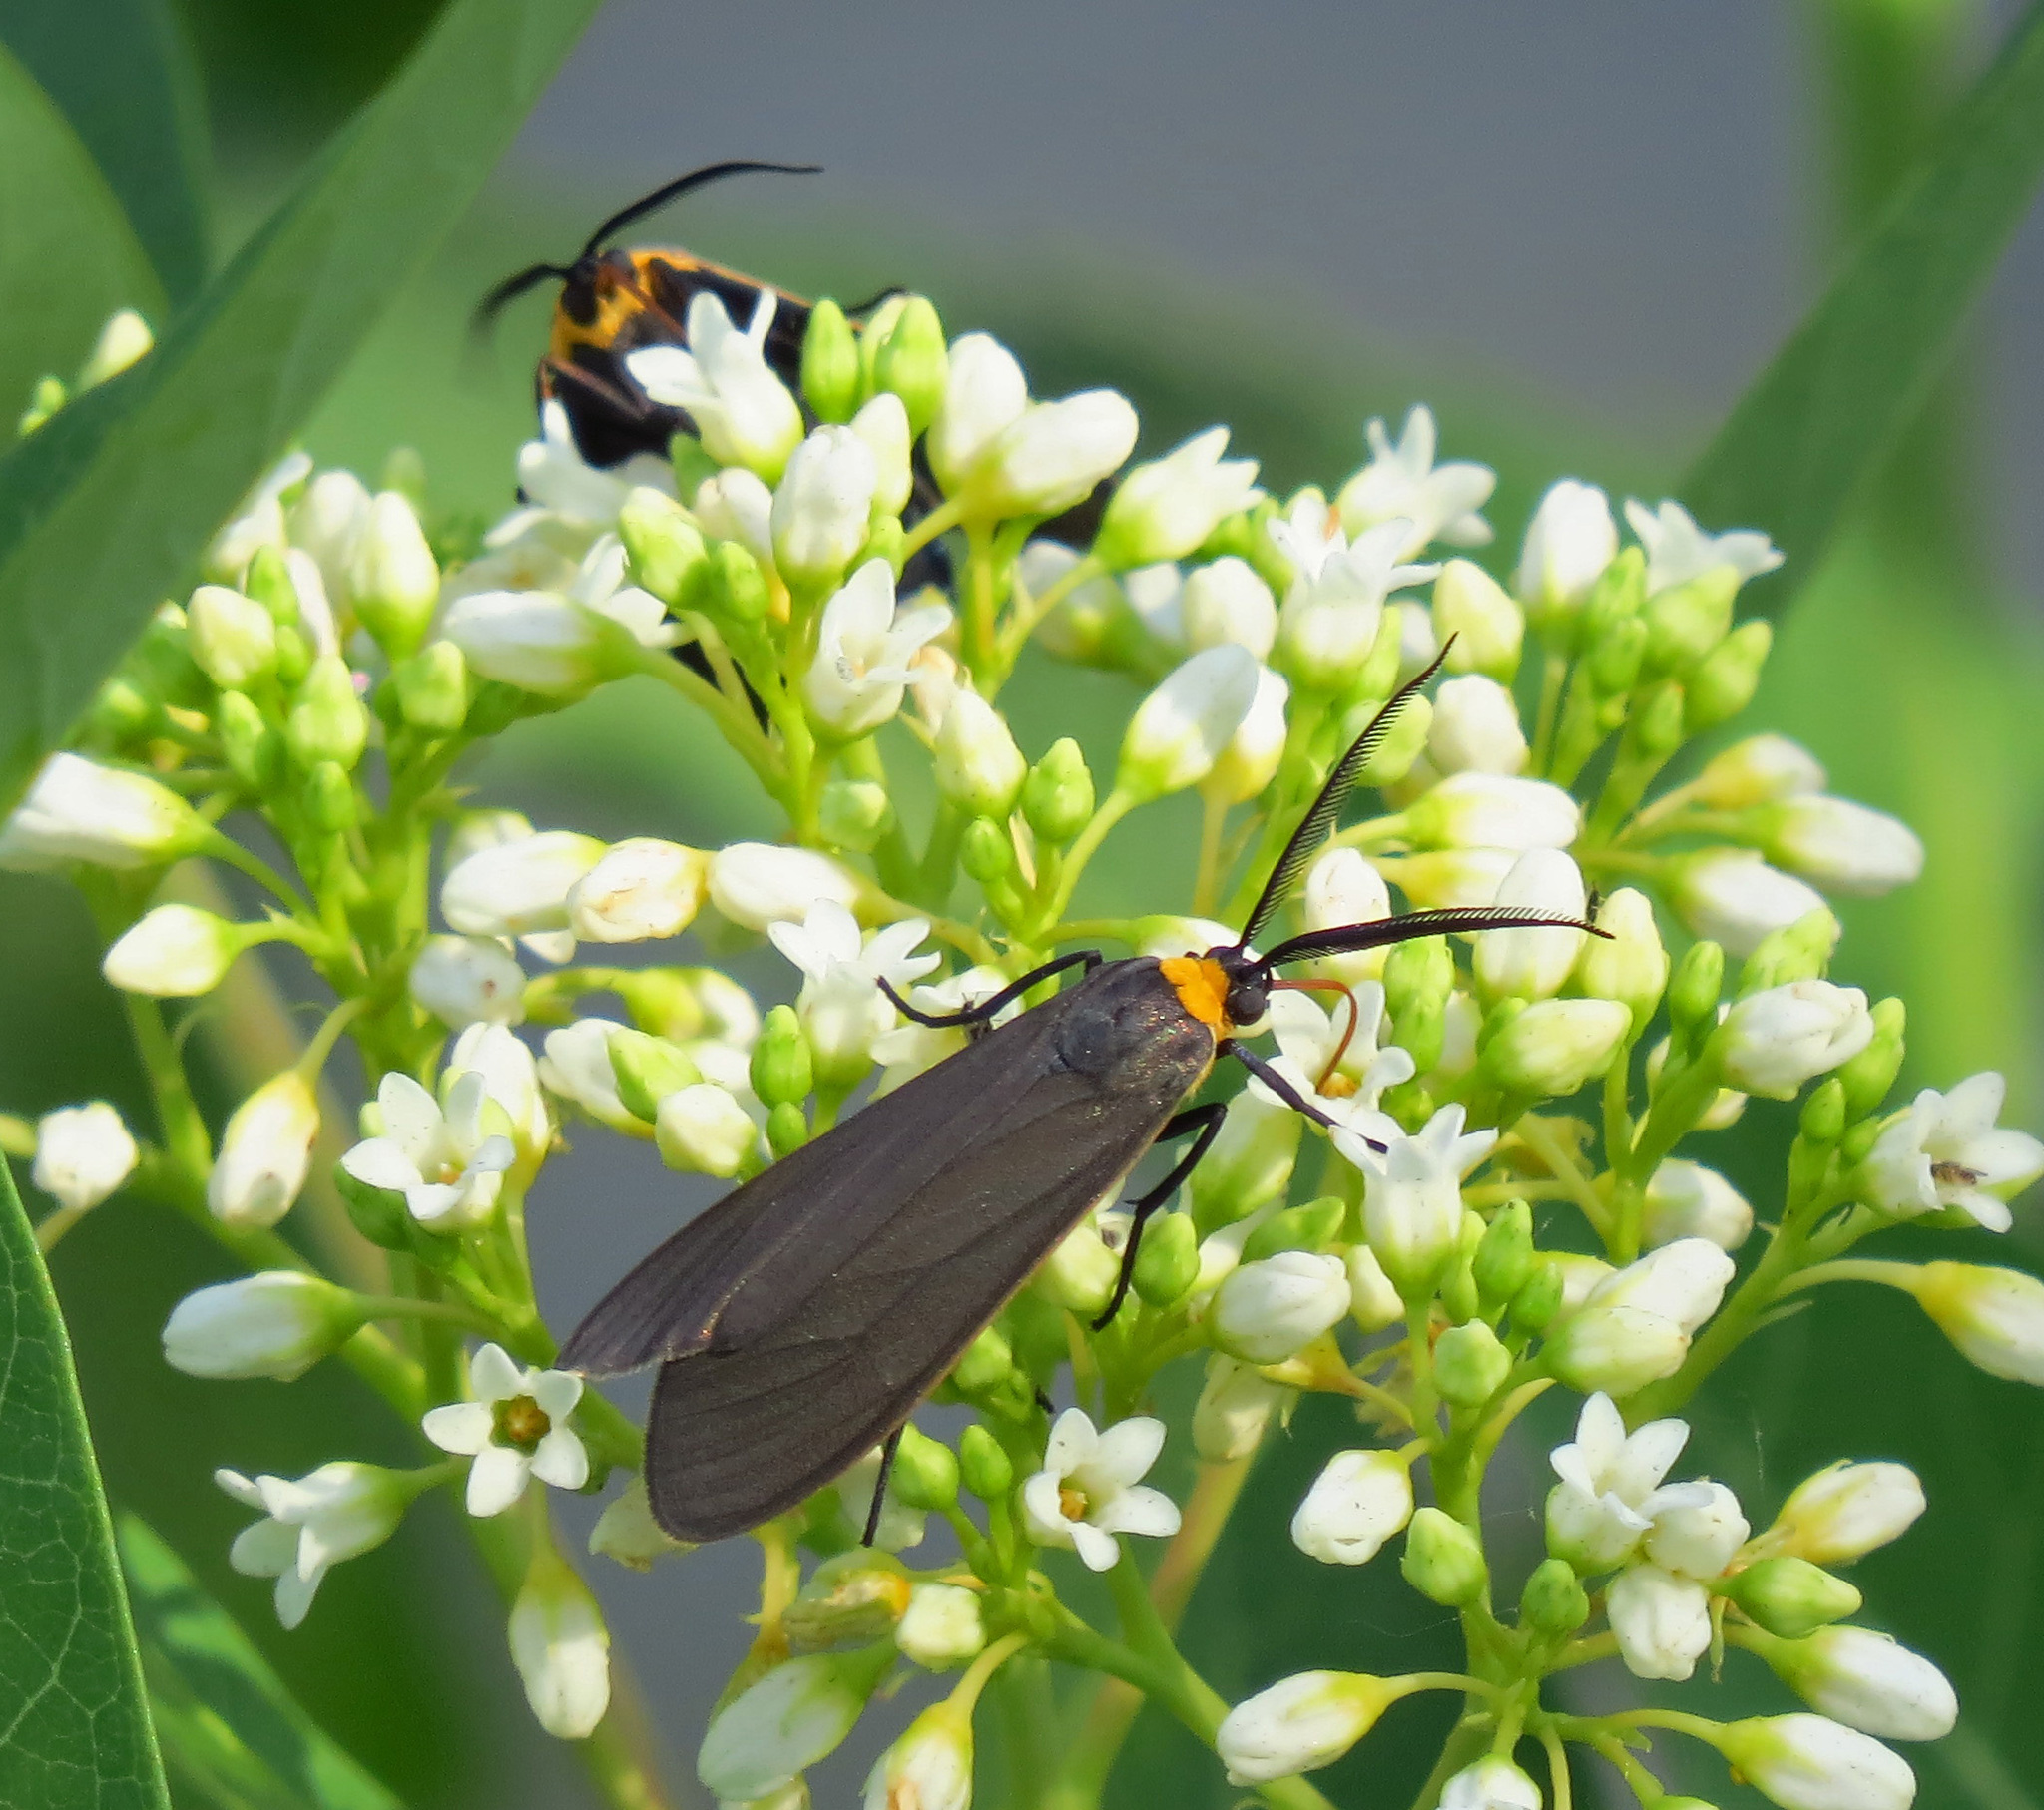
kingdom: Animalia
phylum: Arthropoda
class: Insecta
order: Lepidoptera
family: Erebidae
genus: Cisseps
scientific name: Cisseps fulvicollis
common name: Yellow-collared scape moth
